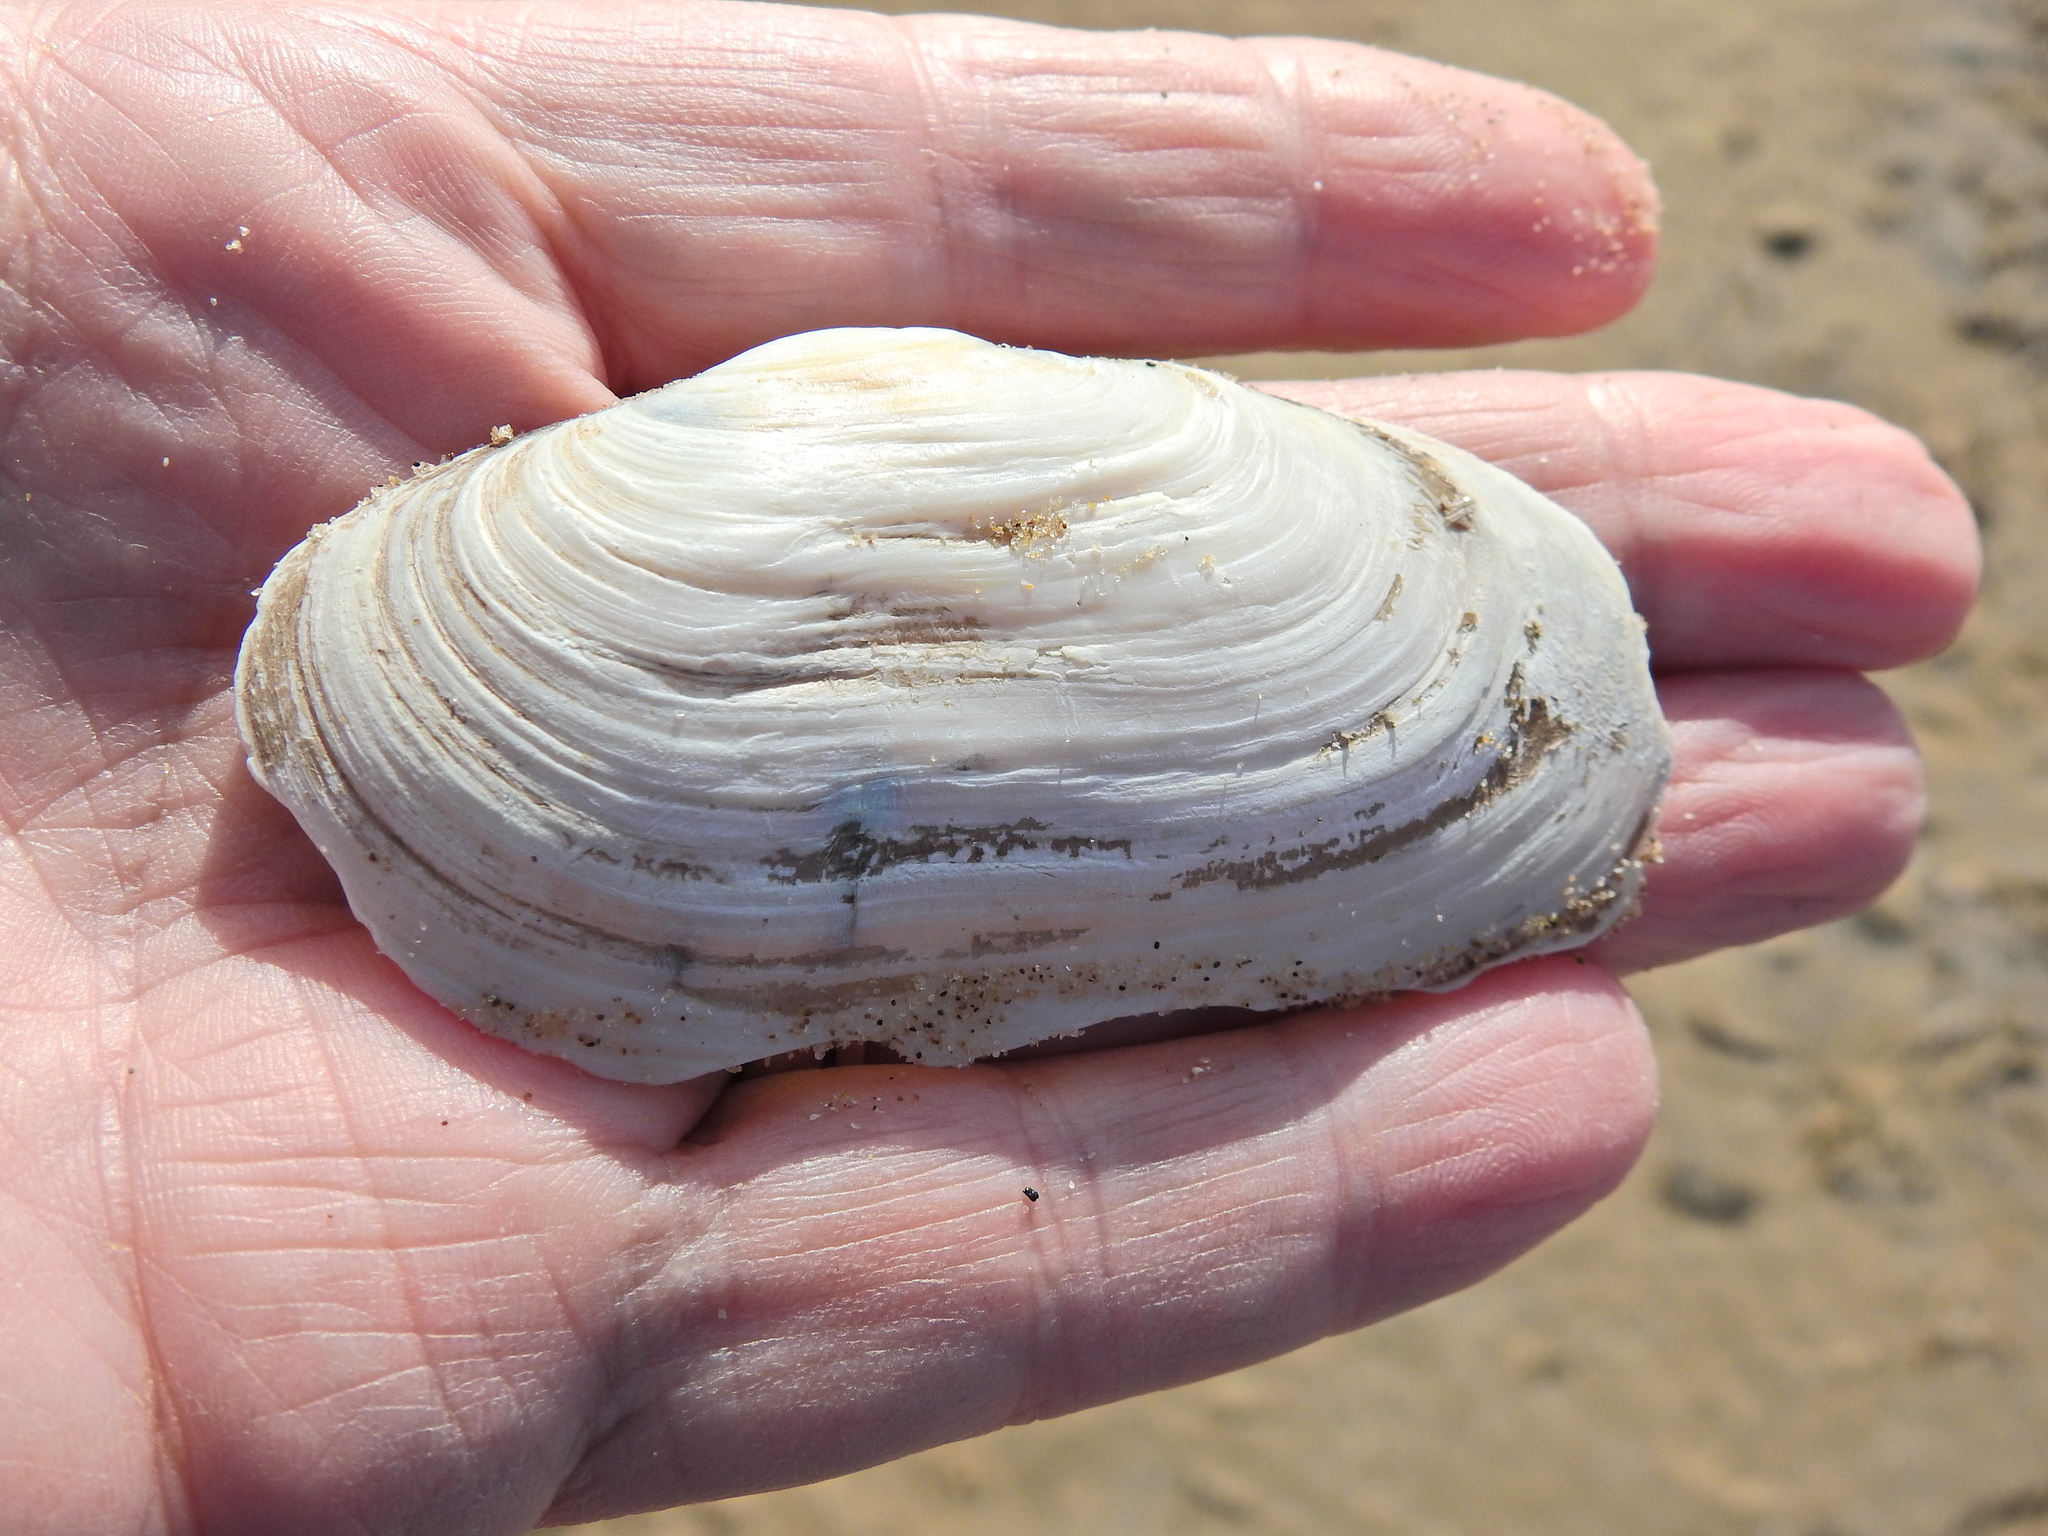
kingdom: Animalia
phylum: Mollusca
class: Bivalvia
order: Venerida
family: Mactridae
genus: Lutraria
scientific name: Lutraria lutraria
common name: Common otter shell
